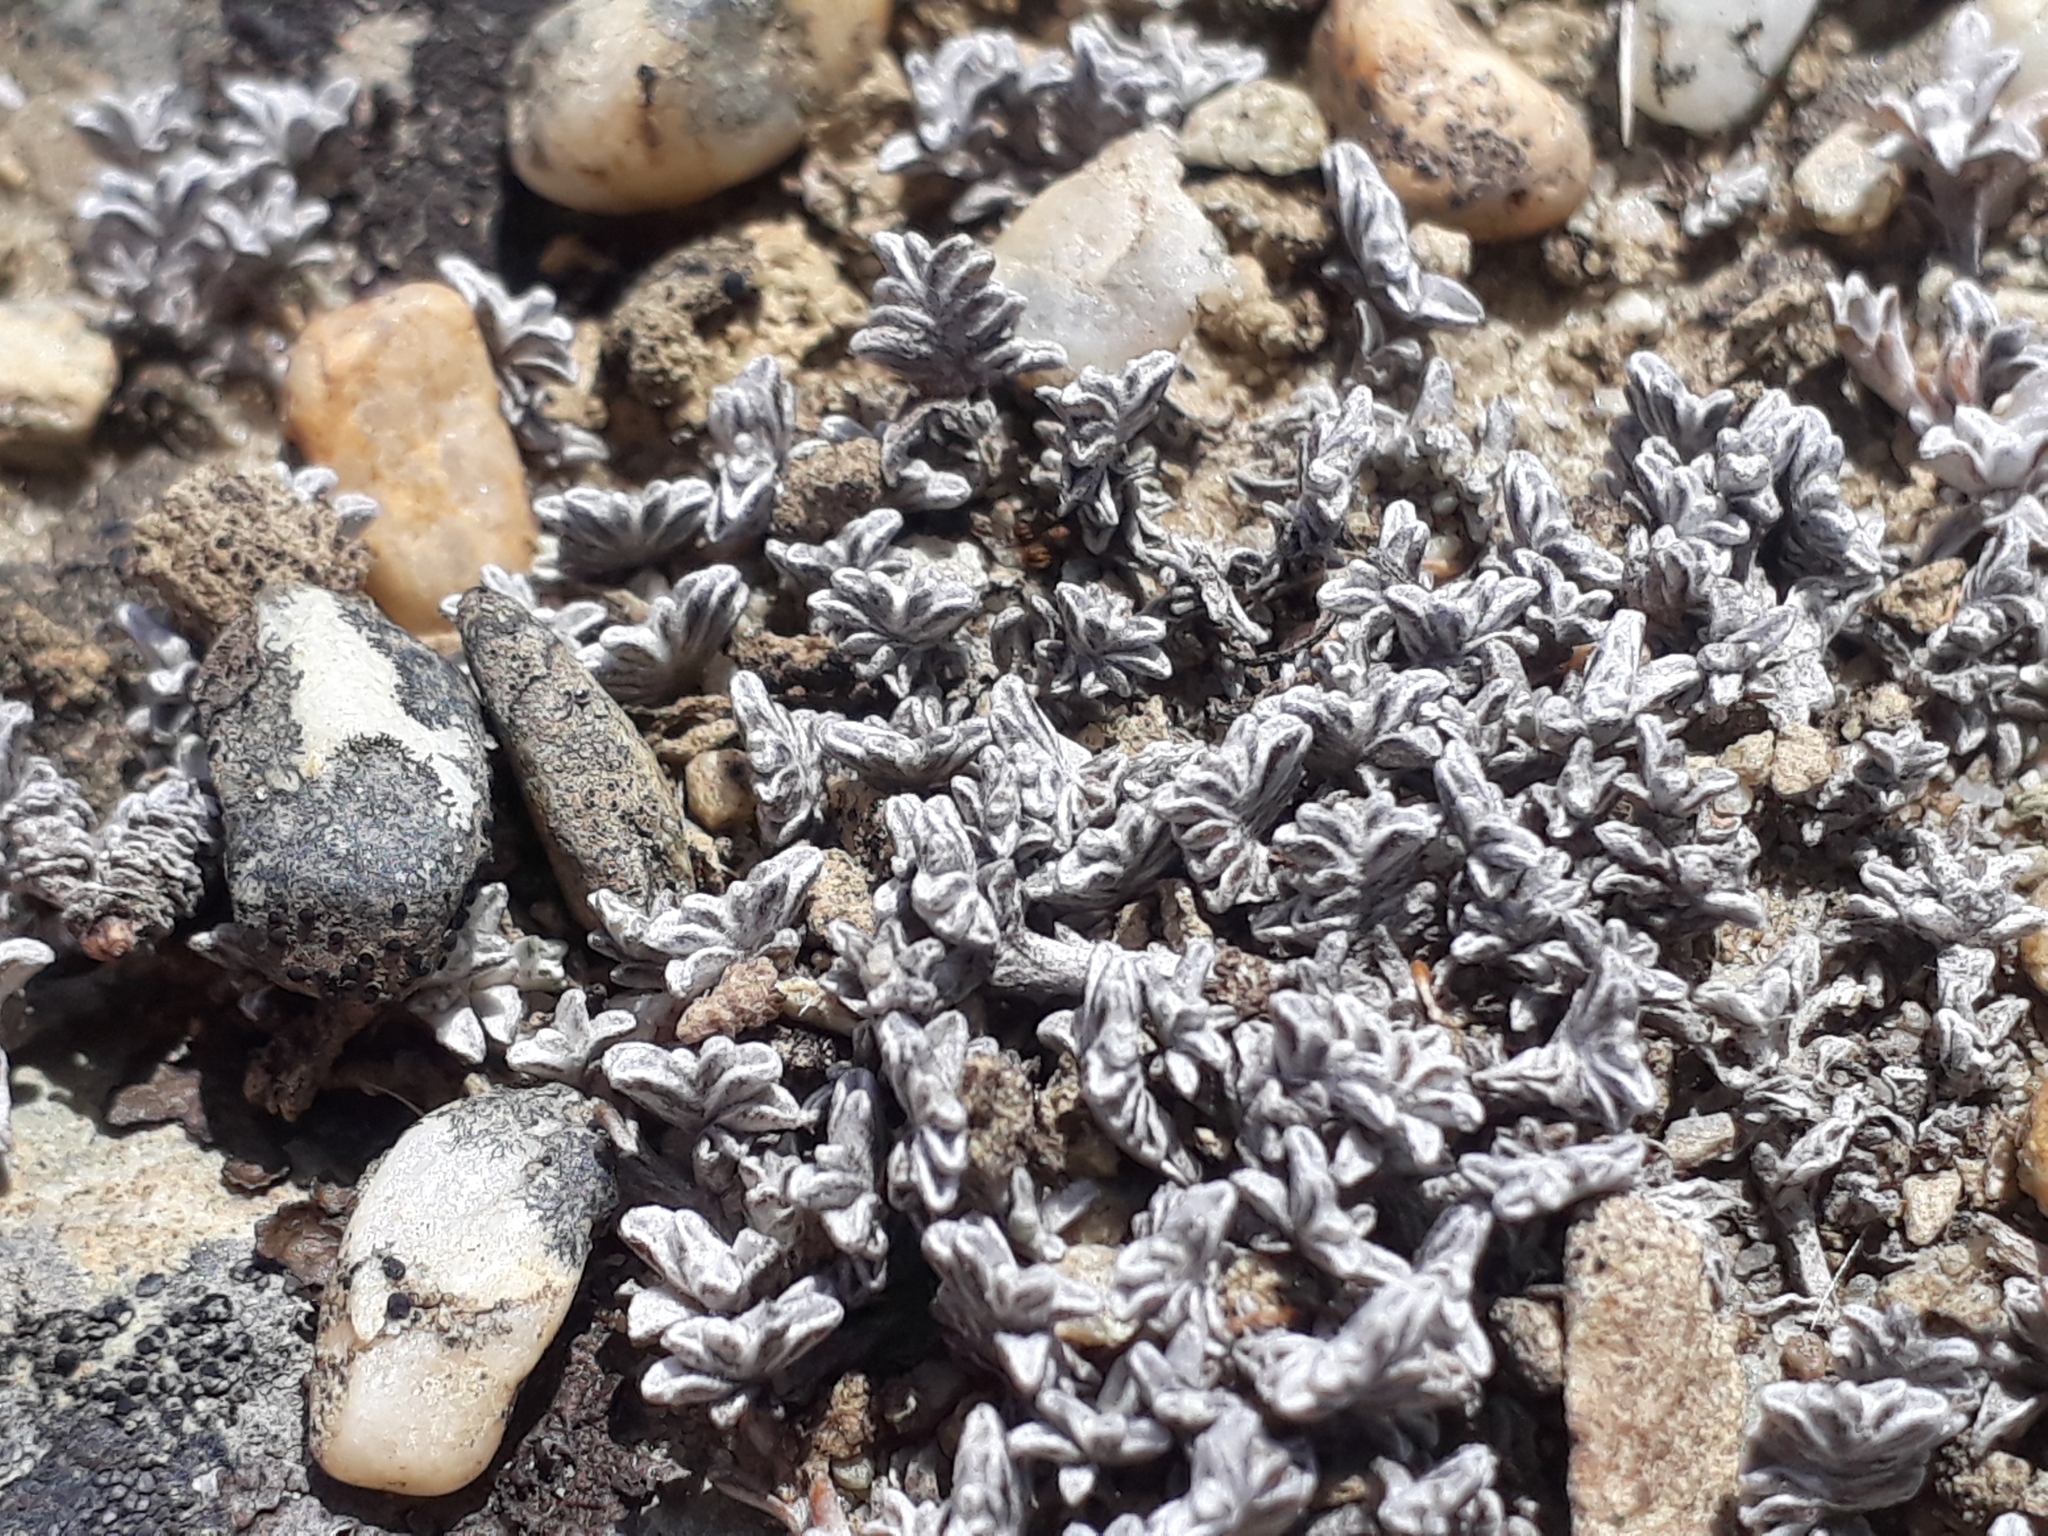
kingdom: Plantae
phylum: Tracheophyta
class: Magnoliopsida
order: Asterales
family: Asteraceae
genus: Raoulia
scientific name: Raoulia monroi
